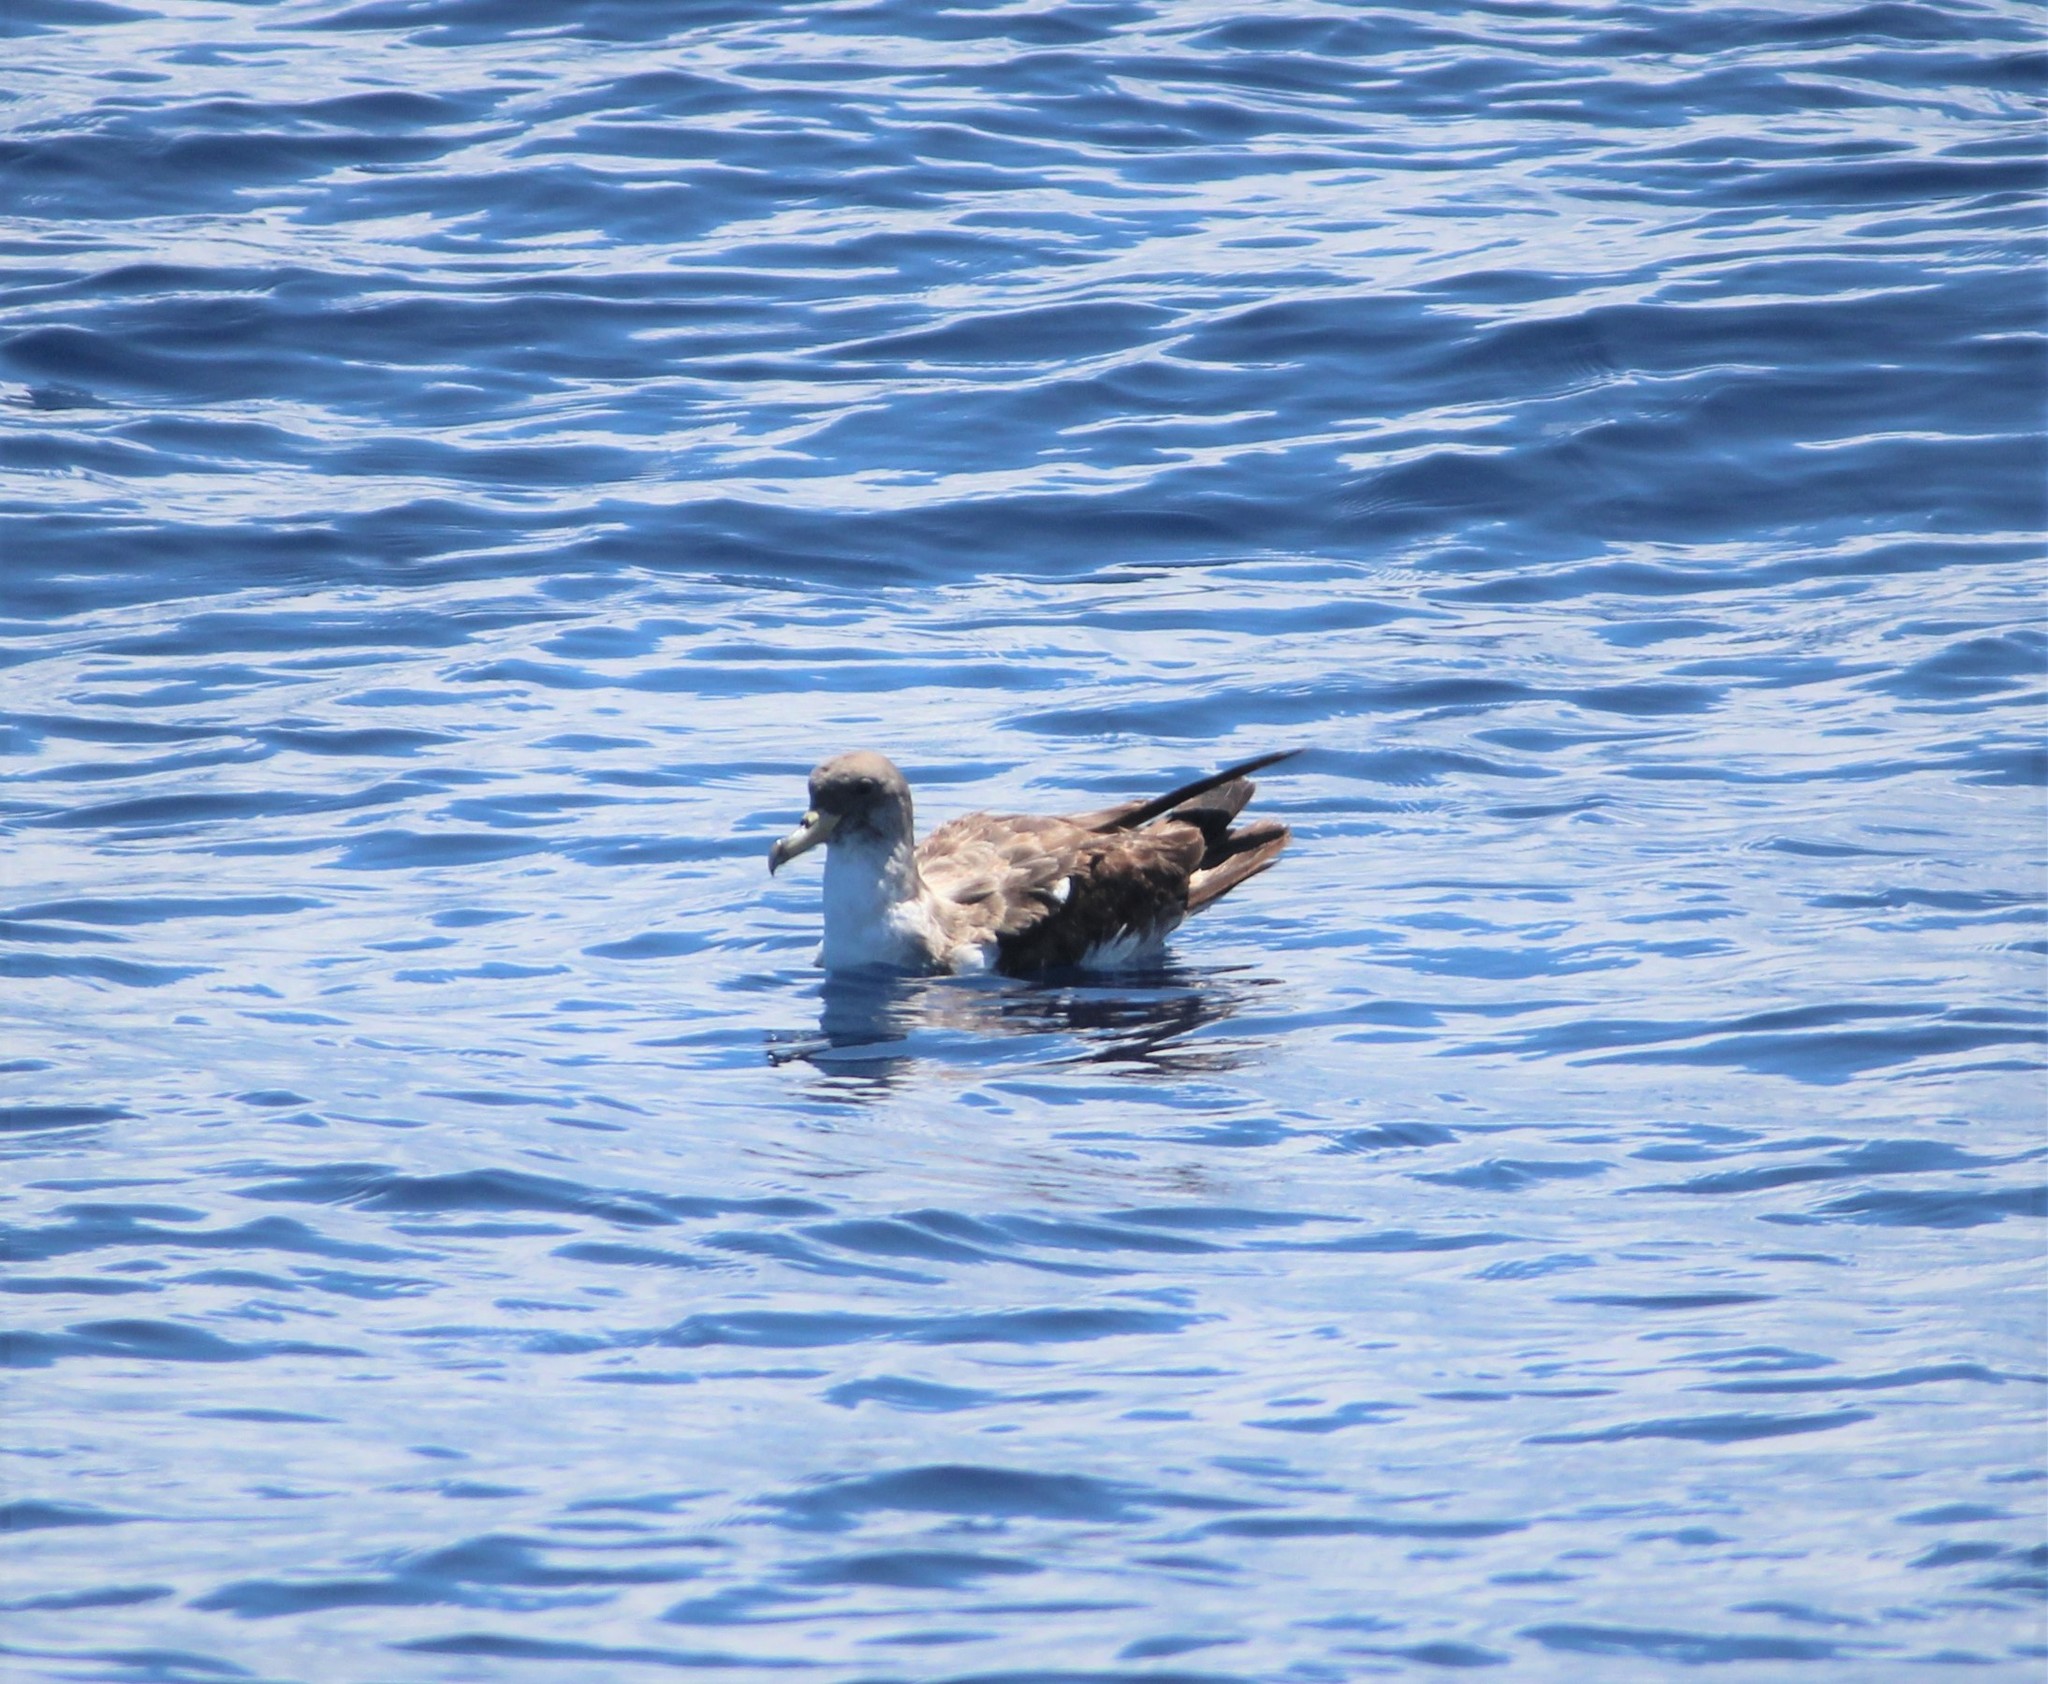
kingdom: Animalia
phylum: Chordata
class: Aves
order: Procellariiformes
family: Procellariidae
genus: Calonectris
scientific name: Calonectris diomedea
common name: Cory's shearwater
